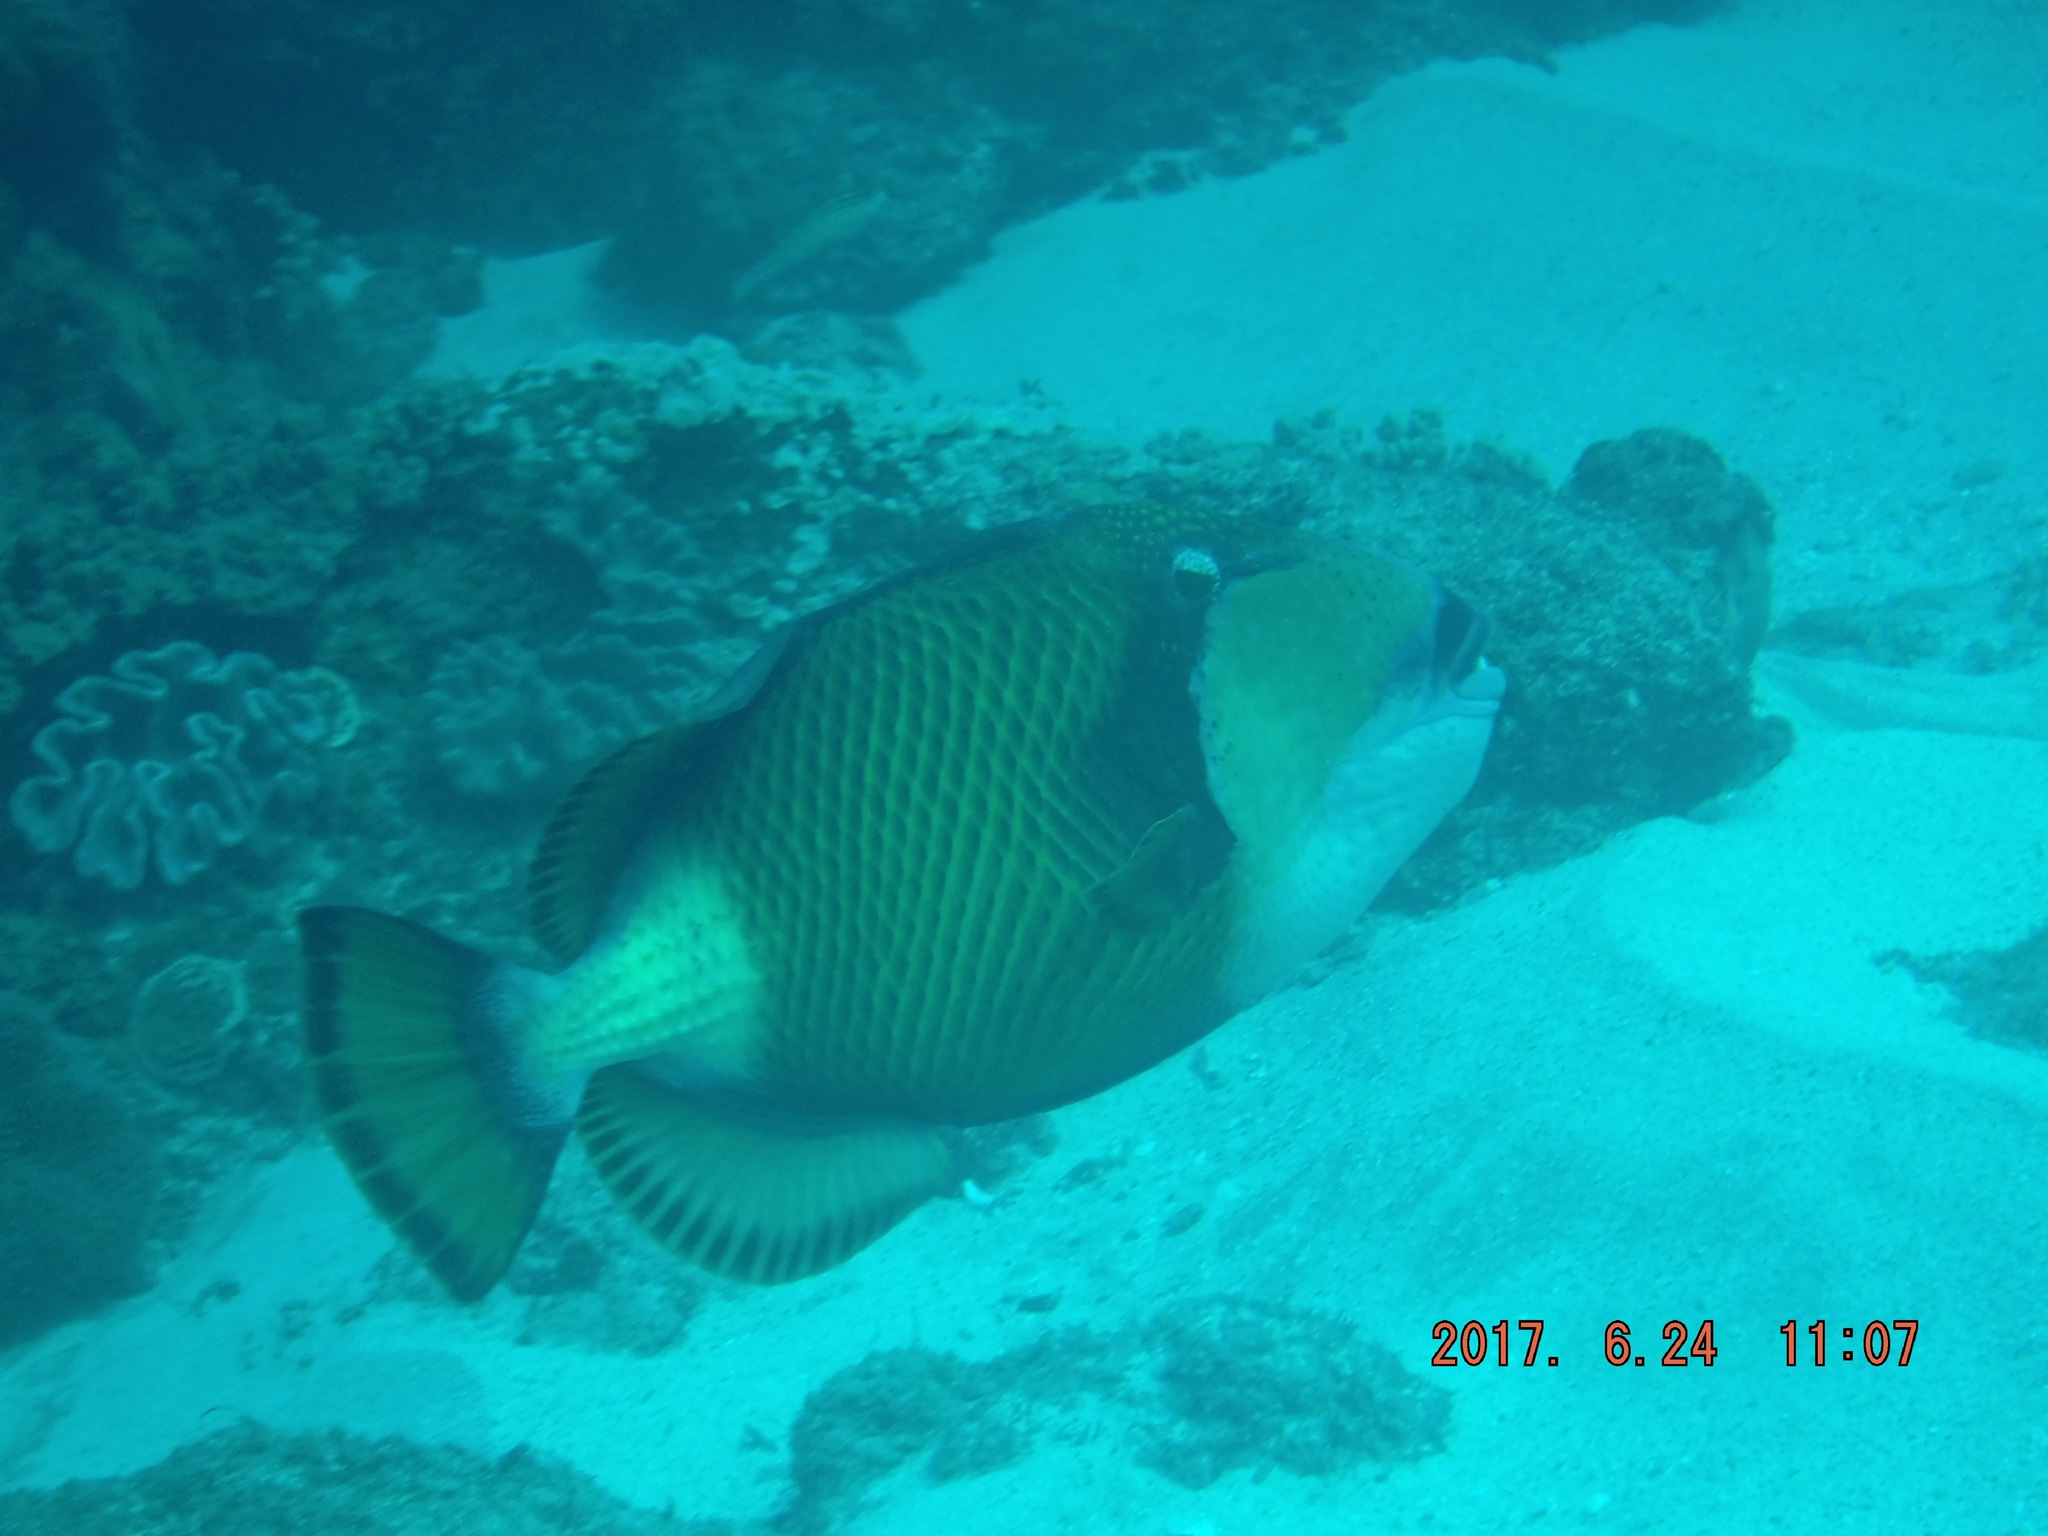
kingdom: Animalia
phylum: Chordata
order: Tetraodontiformes
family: Balistidae
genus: Balistoides
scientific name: Balistoides viridescens
